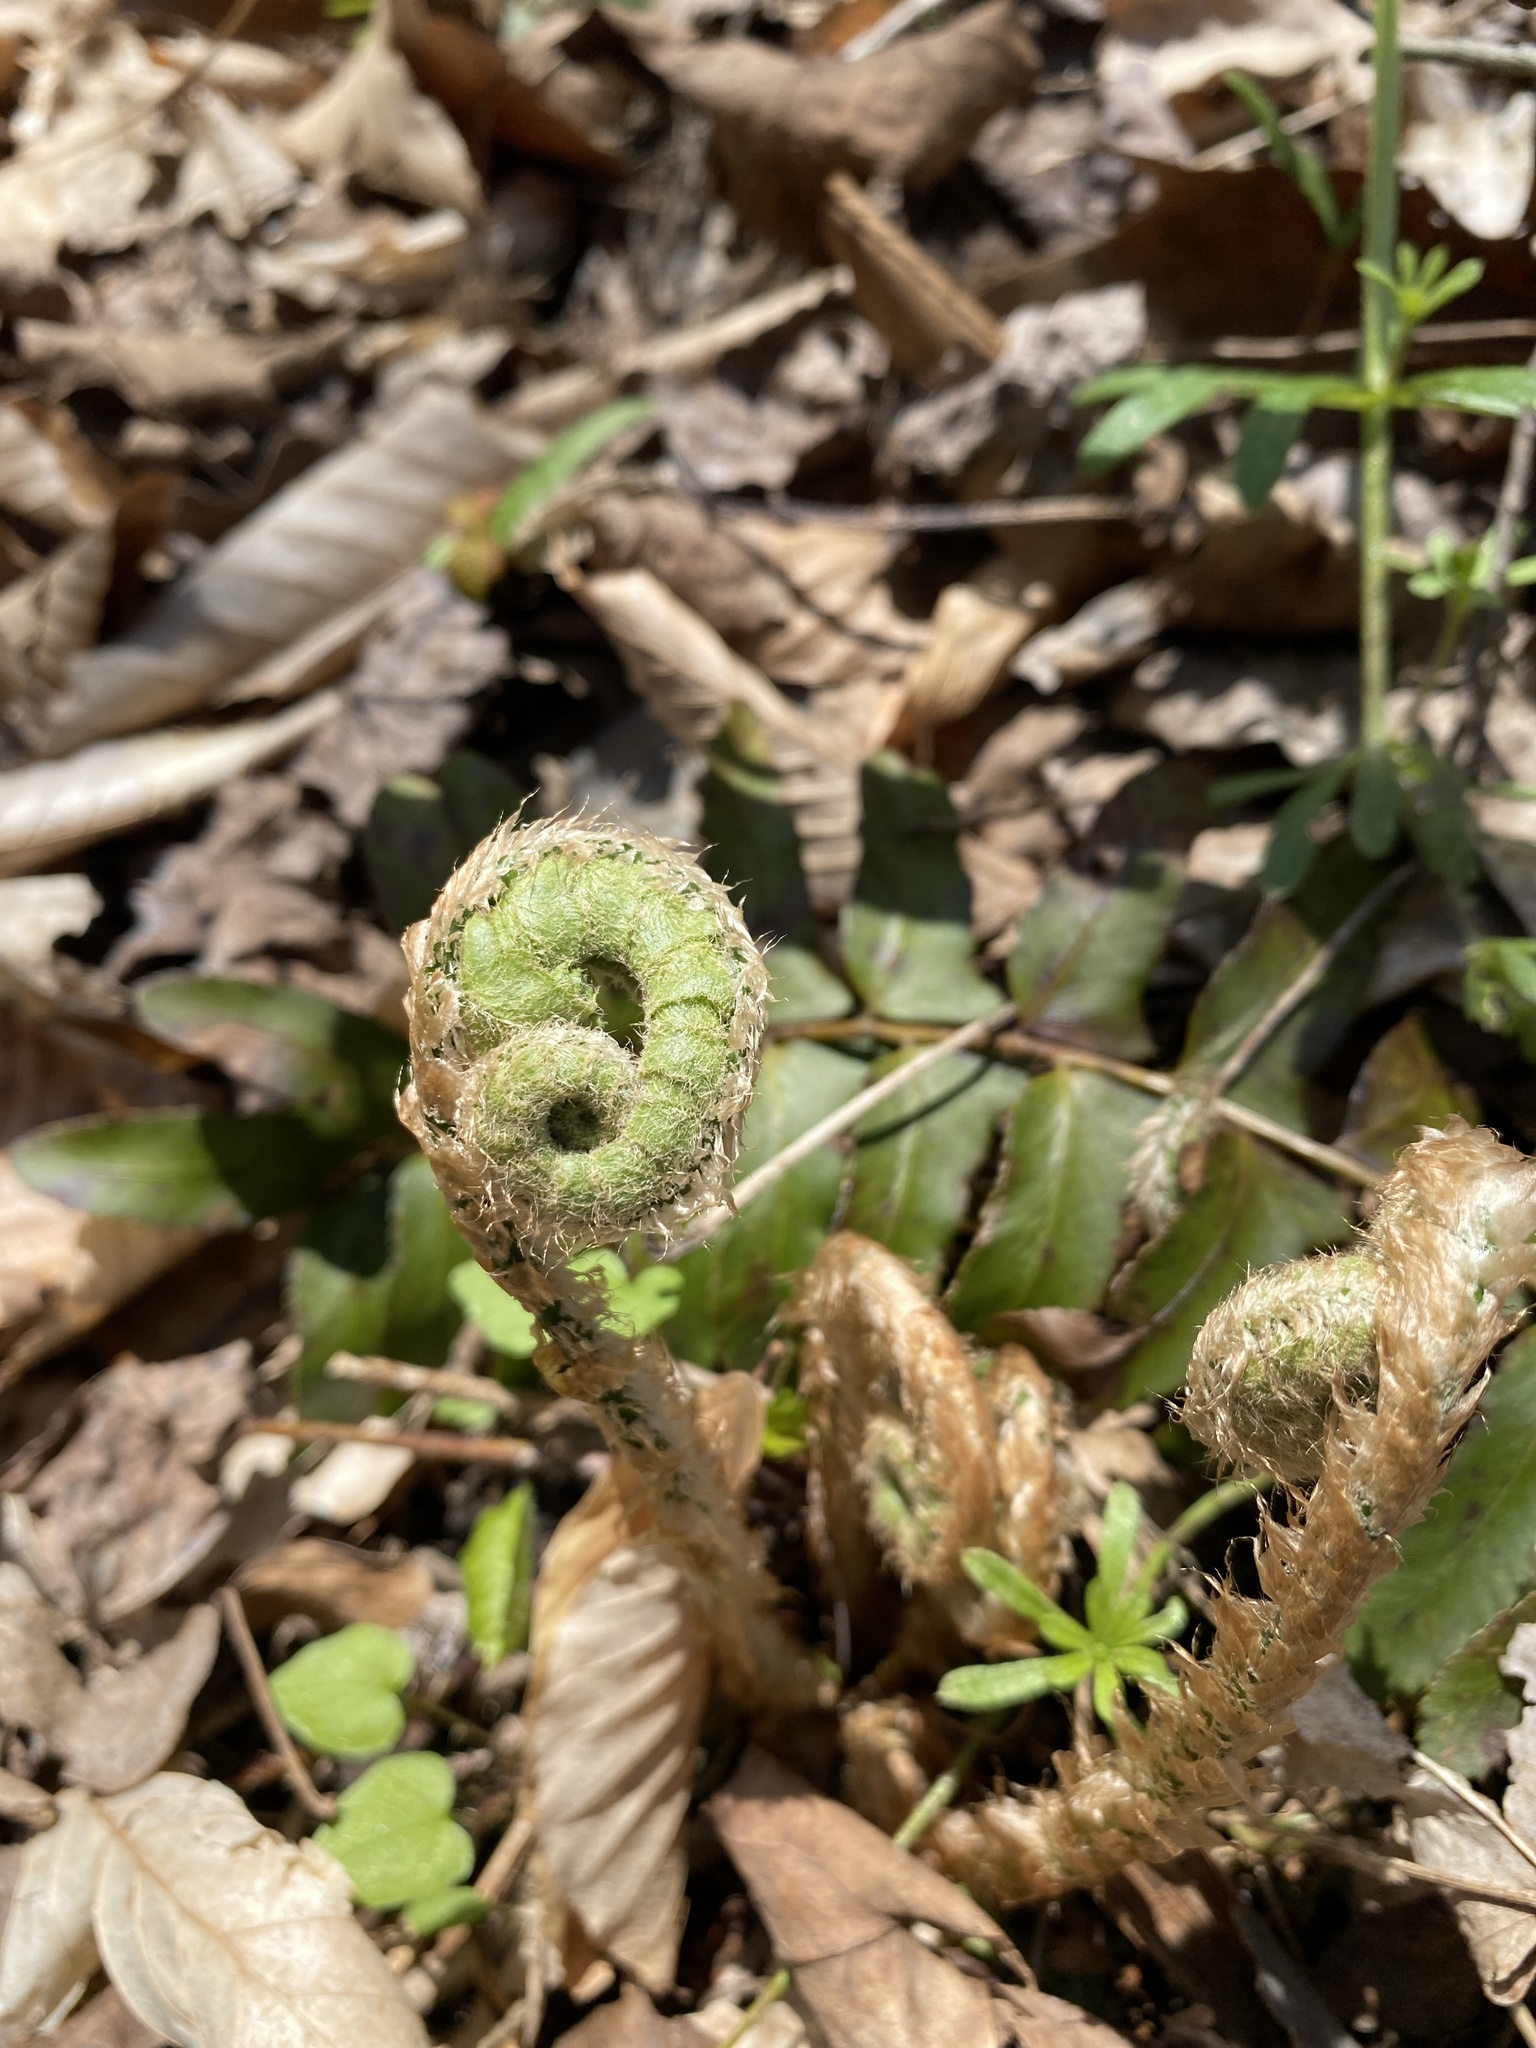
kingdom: Plantae
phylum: Tracheophyta
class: Polypodiopsida
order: Polypodiales
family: Dryopteridaceae
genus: Polystichum
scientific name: Polystichum acrostichoides
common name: Christmas fern
